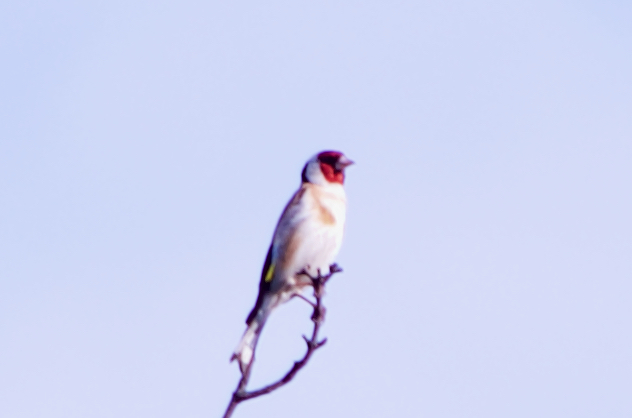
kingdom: Animalia
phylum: Chordata
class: Aves
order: Passeriformes
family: Fringillidae
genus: Carduelis
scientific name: Carduelis carduelis
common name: European goldfinch
